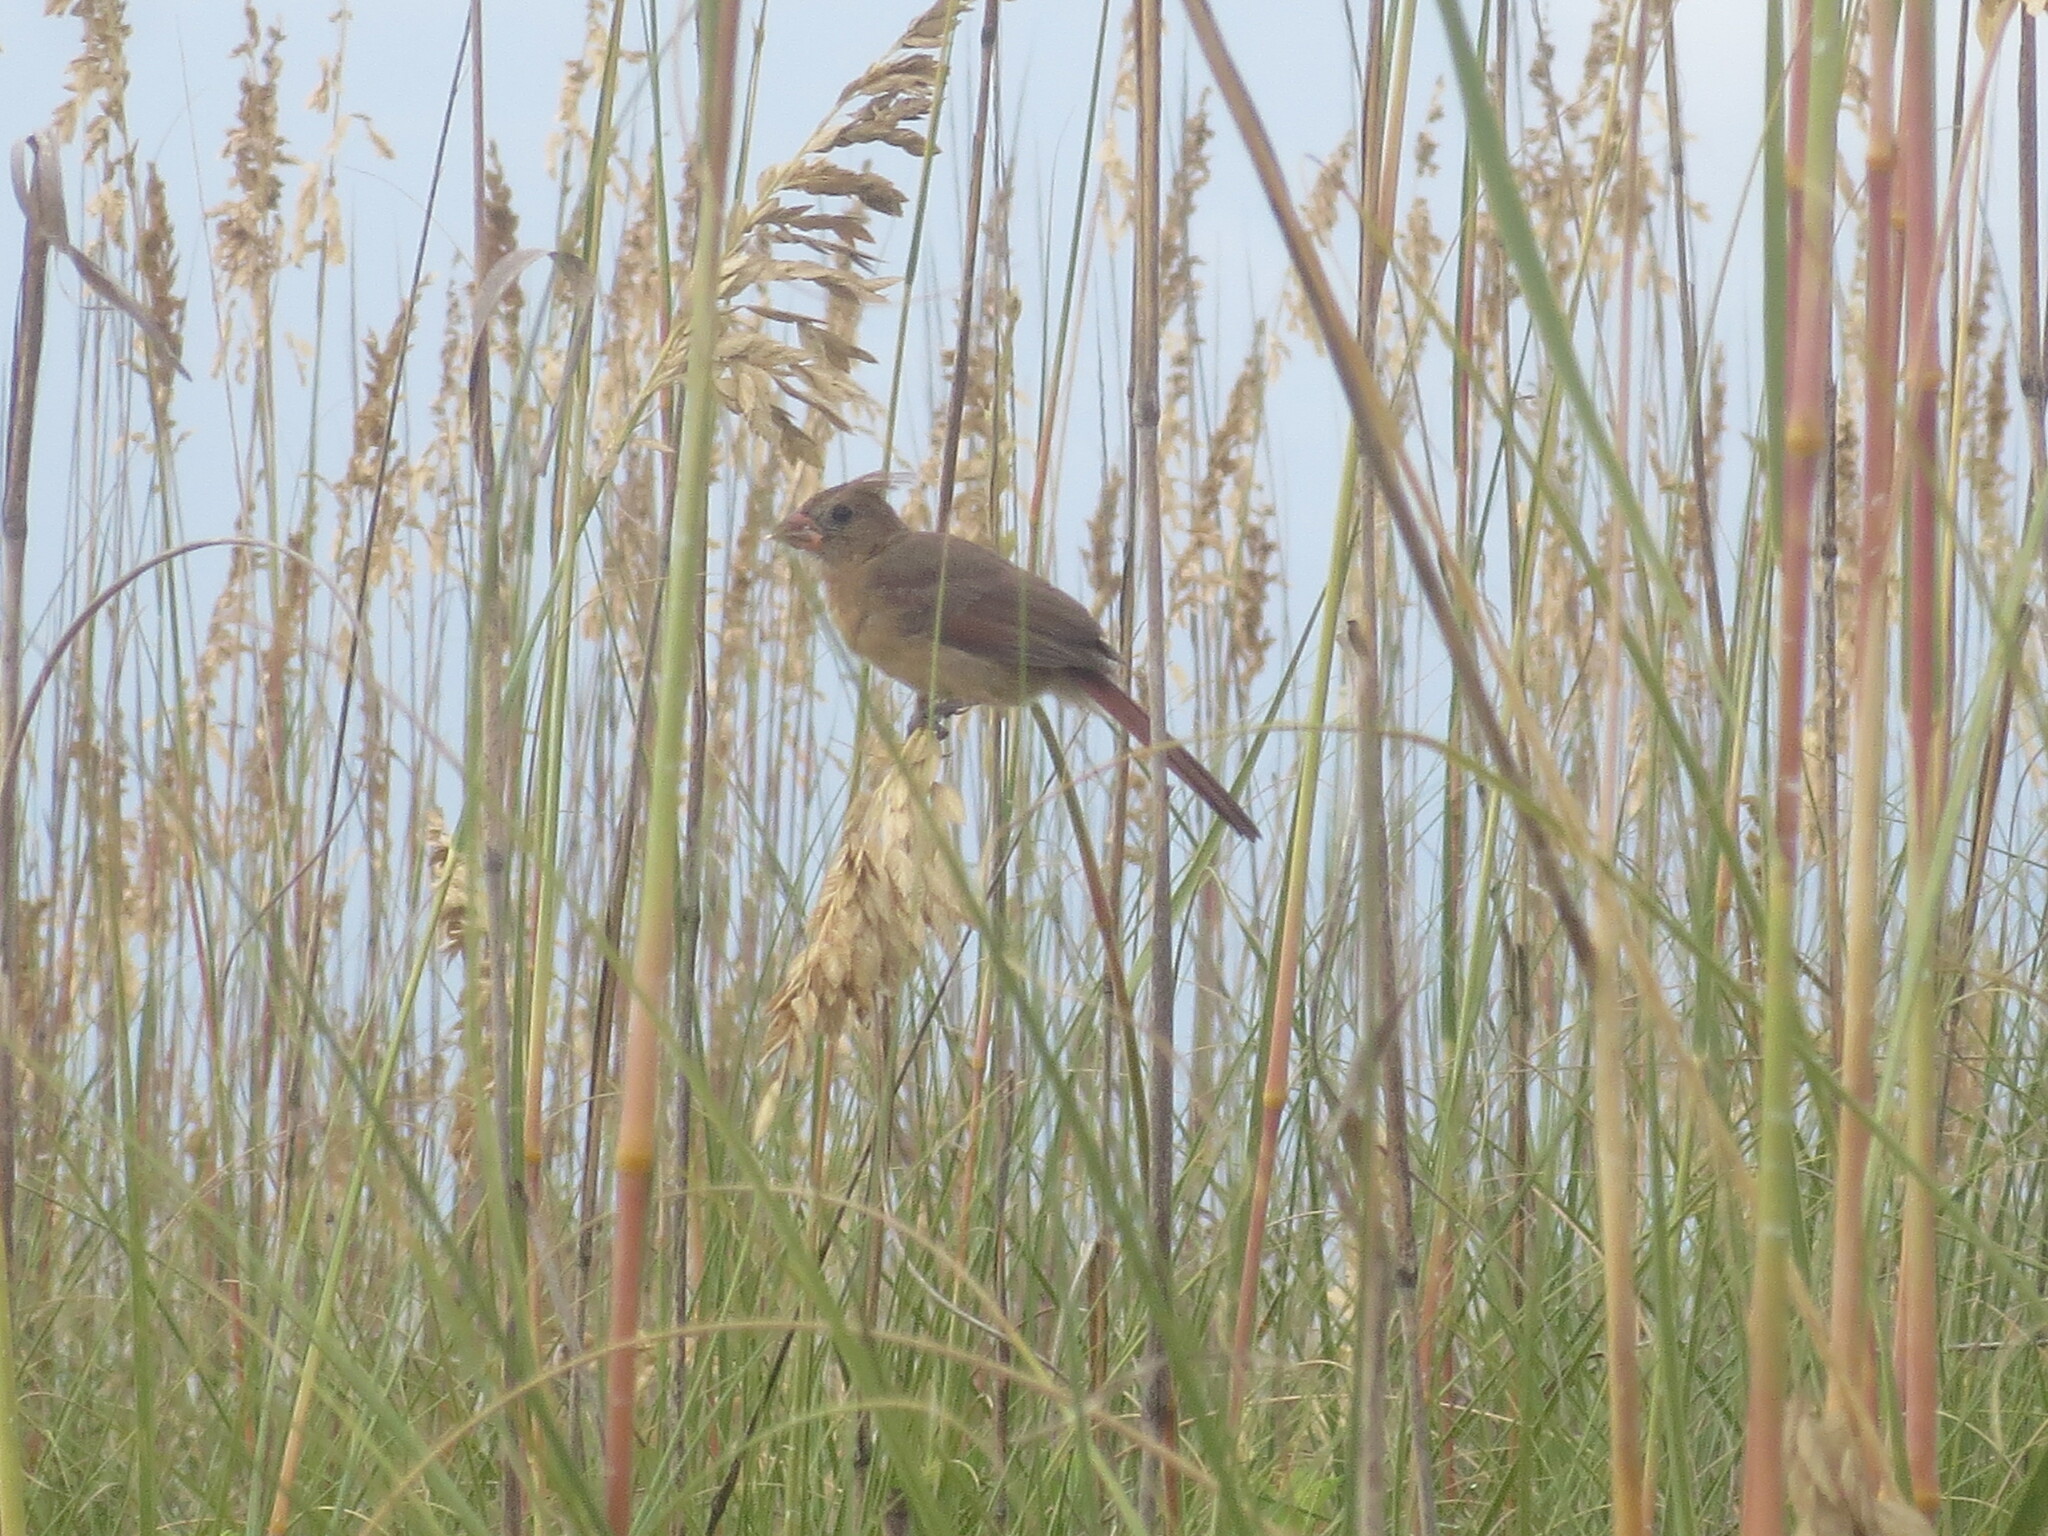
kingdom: Animalia
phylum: Chordata
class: Aves
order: Passeriformes
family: Cardinalidae
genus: Cardinalis
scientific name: Cardinalis cardinalis
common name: Northern cardinal
